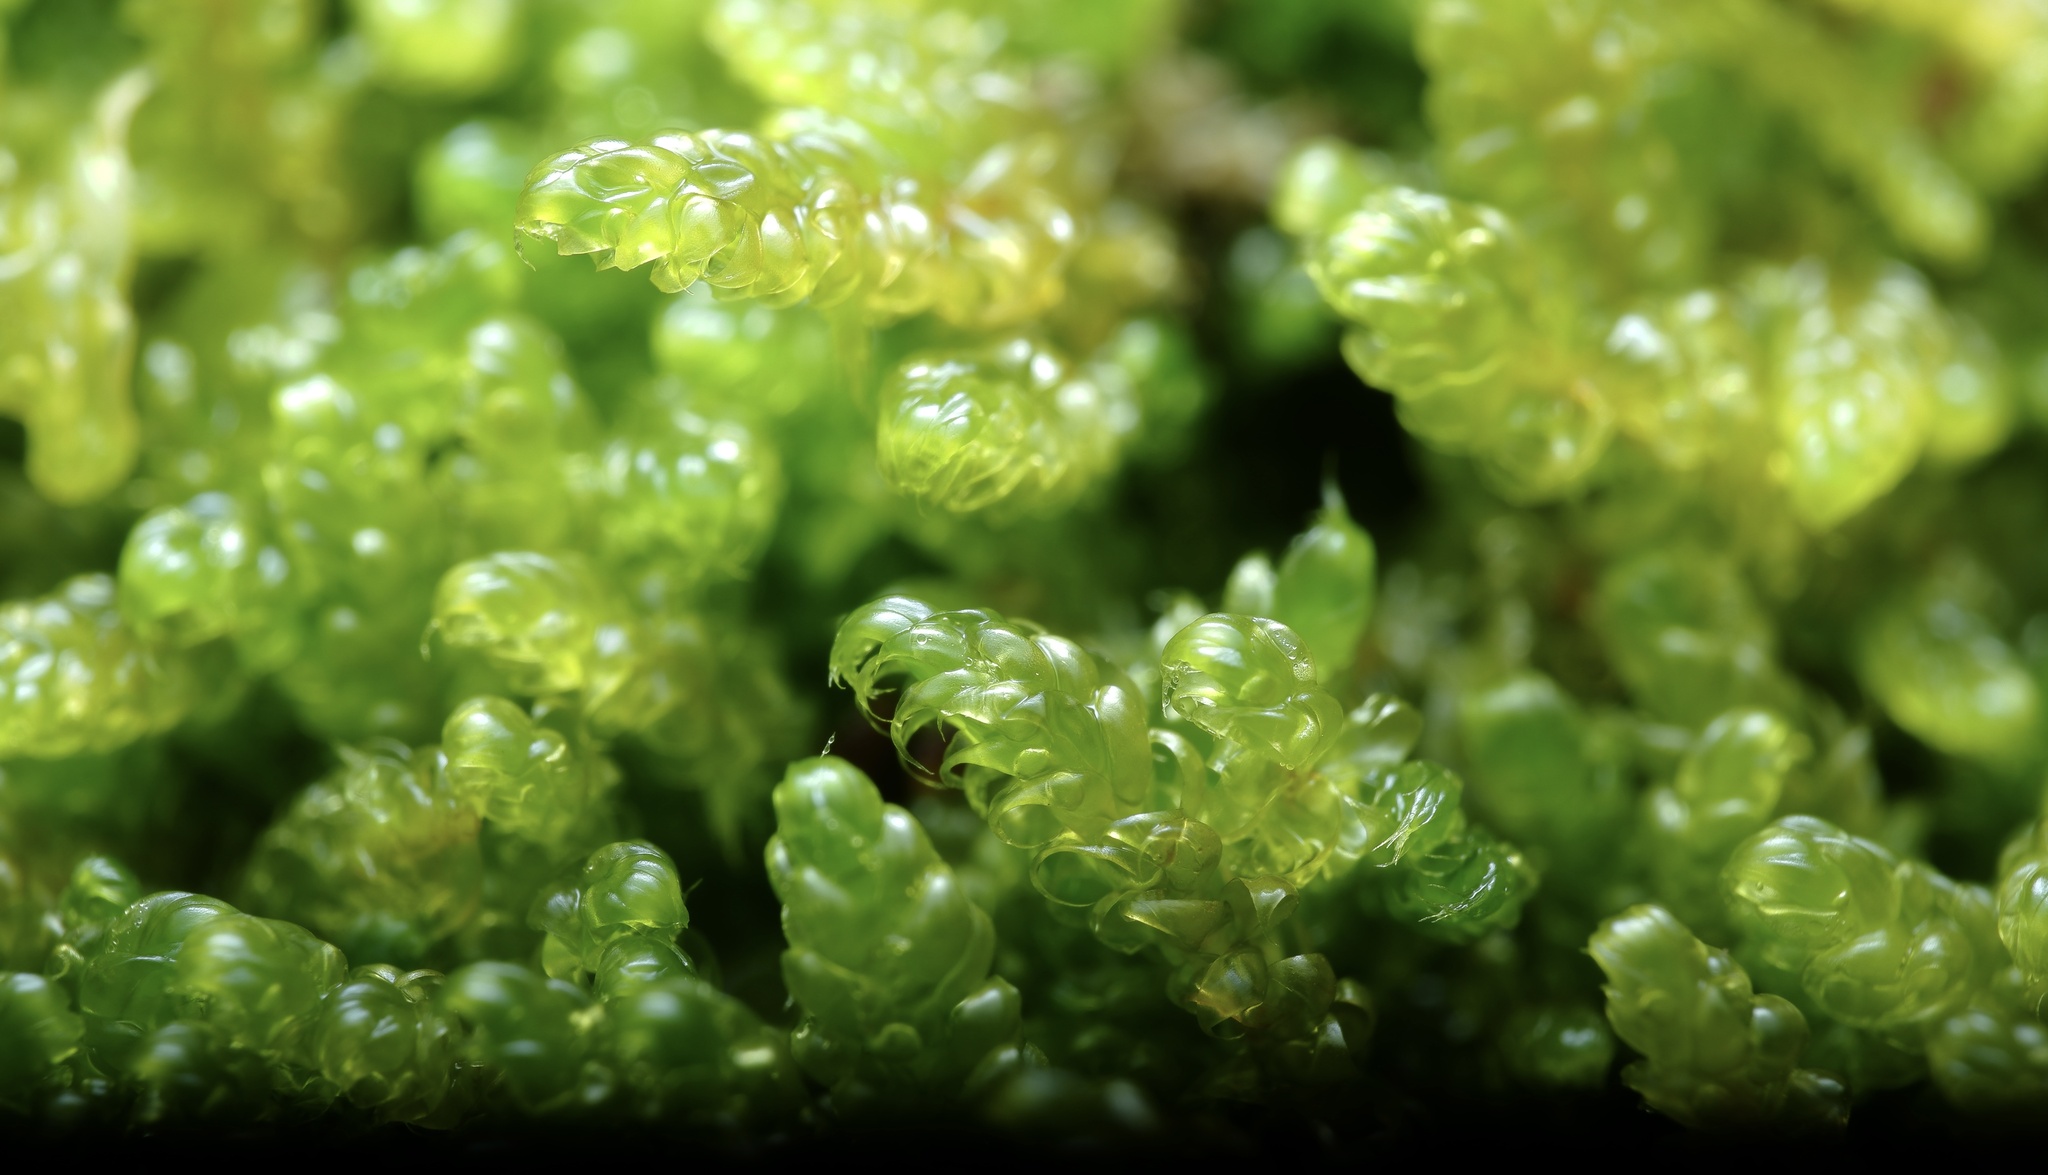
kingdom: Plantae
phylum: Bryophyta
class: Bryopsida
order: Hypnales
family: Hypnaceae
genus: Hypnum
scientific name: Hypnum cupressiforme
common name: Cypress-leaved plait-moss
